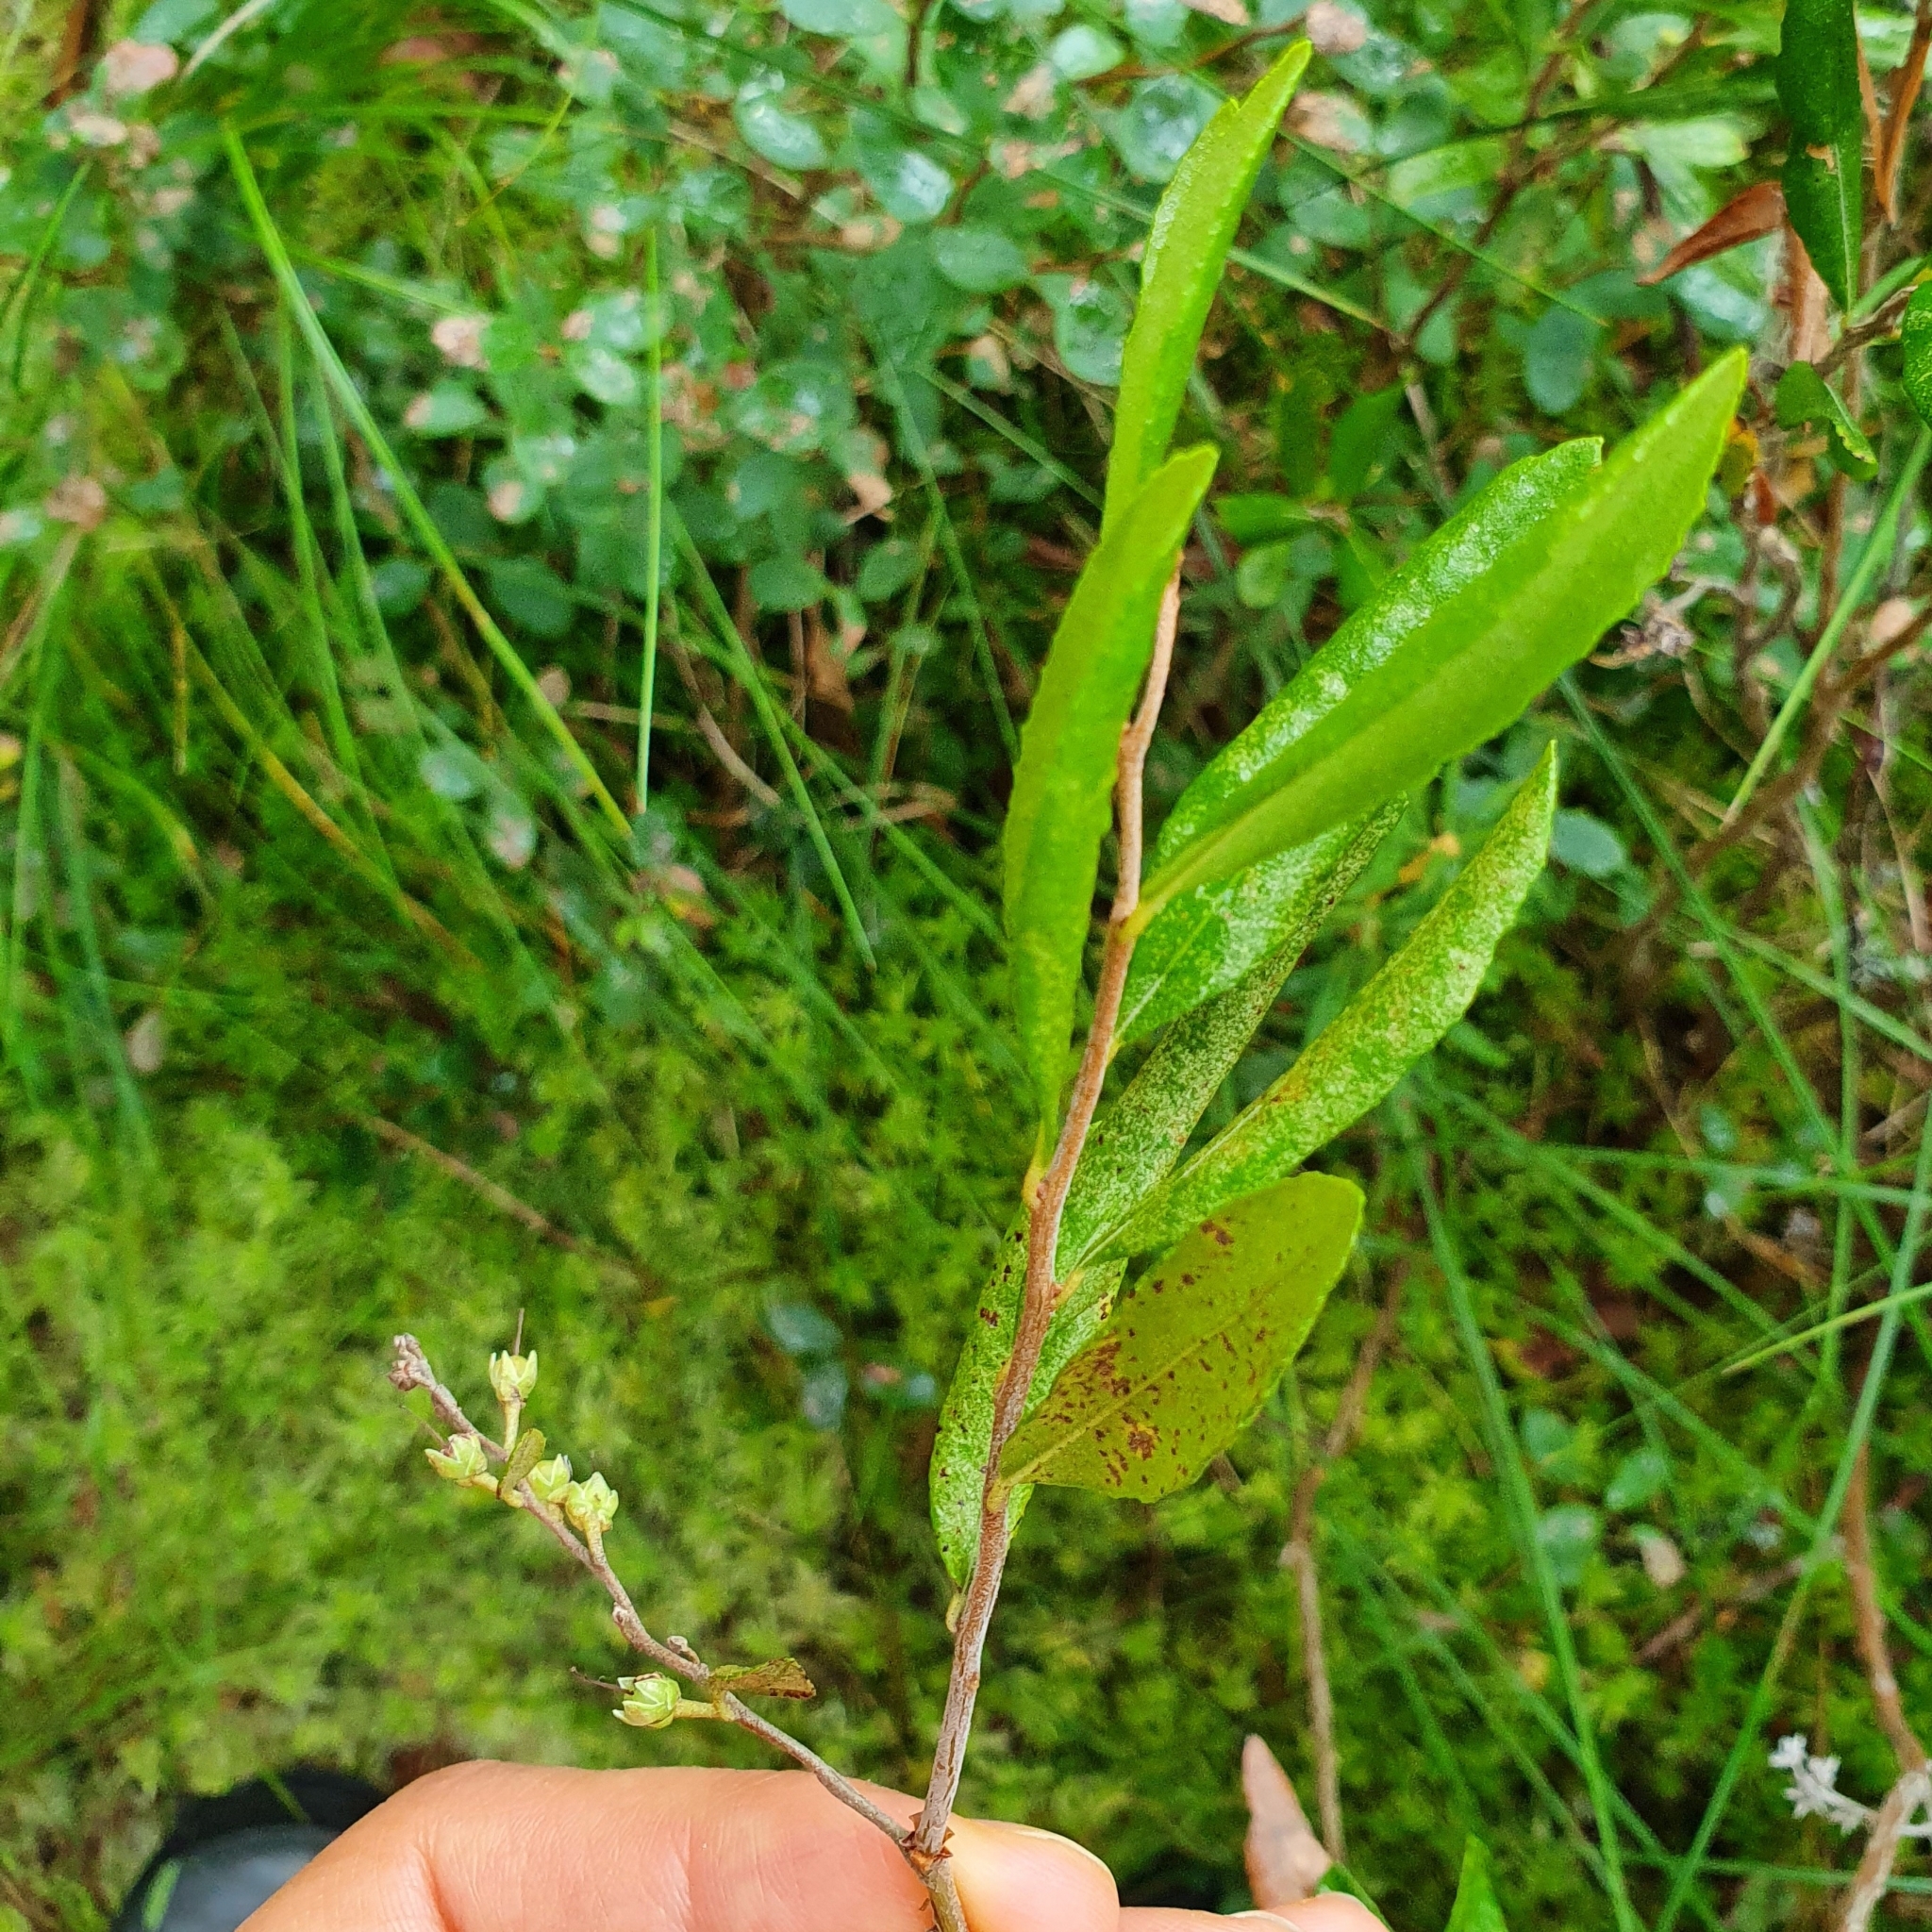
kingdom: Plantae
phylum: Tracheophyta
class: Magnoliopsida
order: Ericales
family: Ericaceae
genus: Chamaedaphne
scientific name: Chamaedaphne calyculata
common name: Leatherleaf
